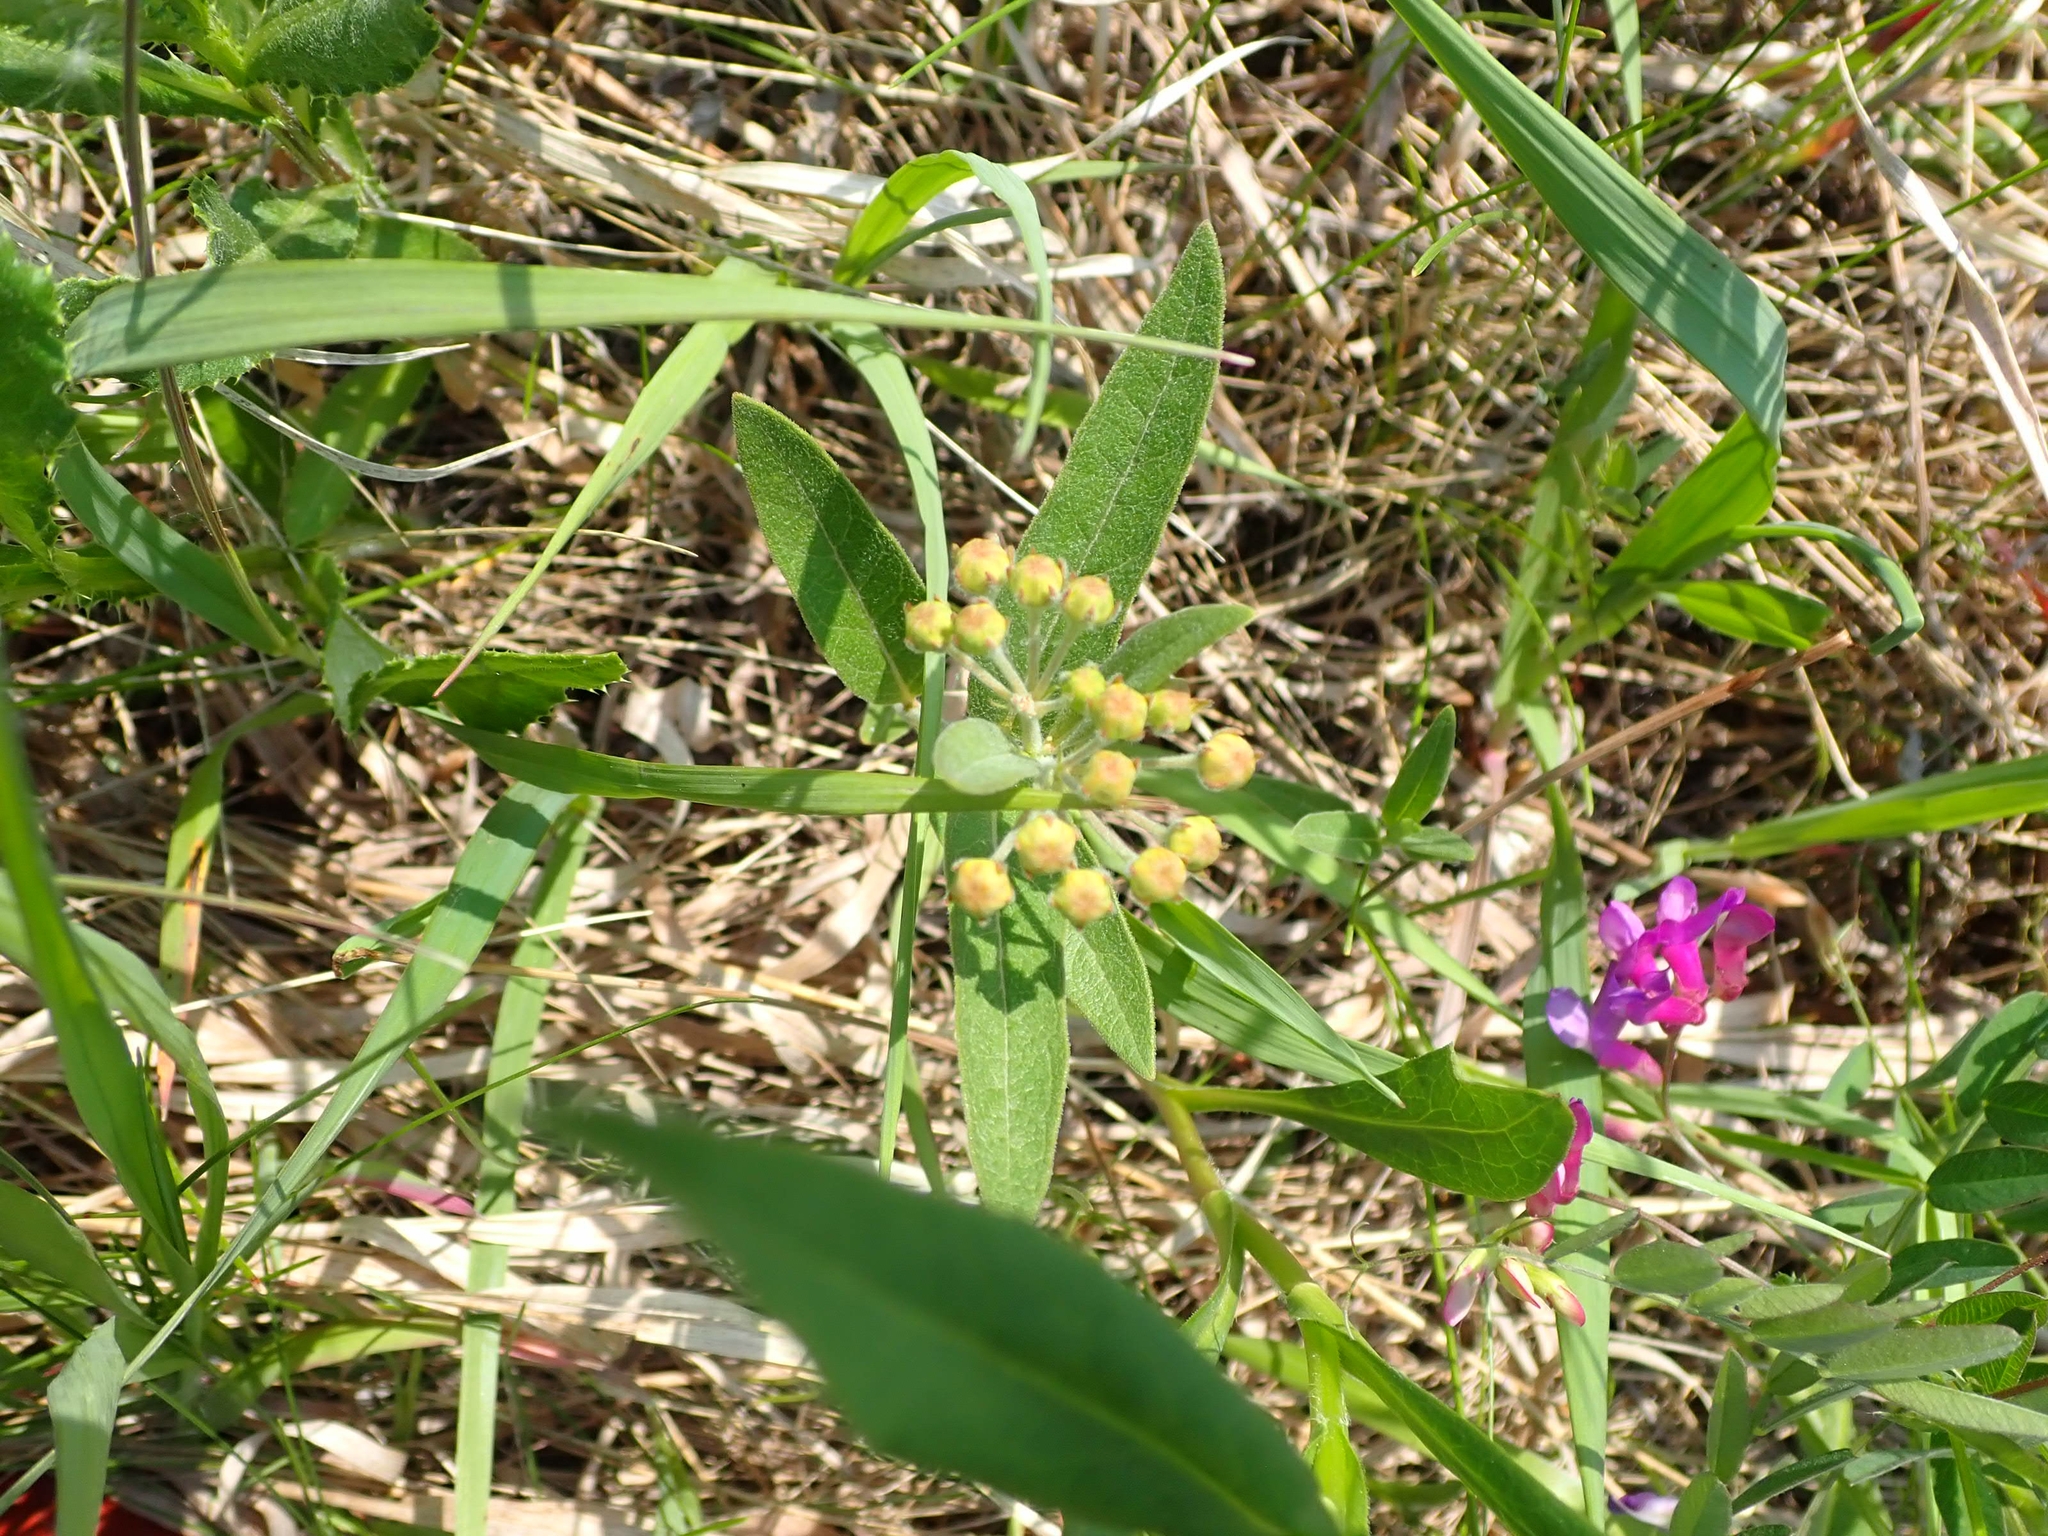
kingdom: Plantae
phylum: Tracheophyta
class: Magnoliopsida
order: Gentianales
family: Apocynaceae
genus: Asclepias
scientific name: Asclepias ovalifolia
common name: Dwarf milkweed
